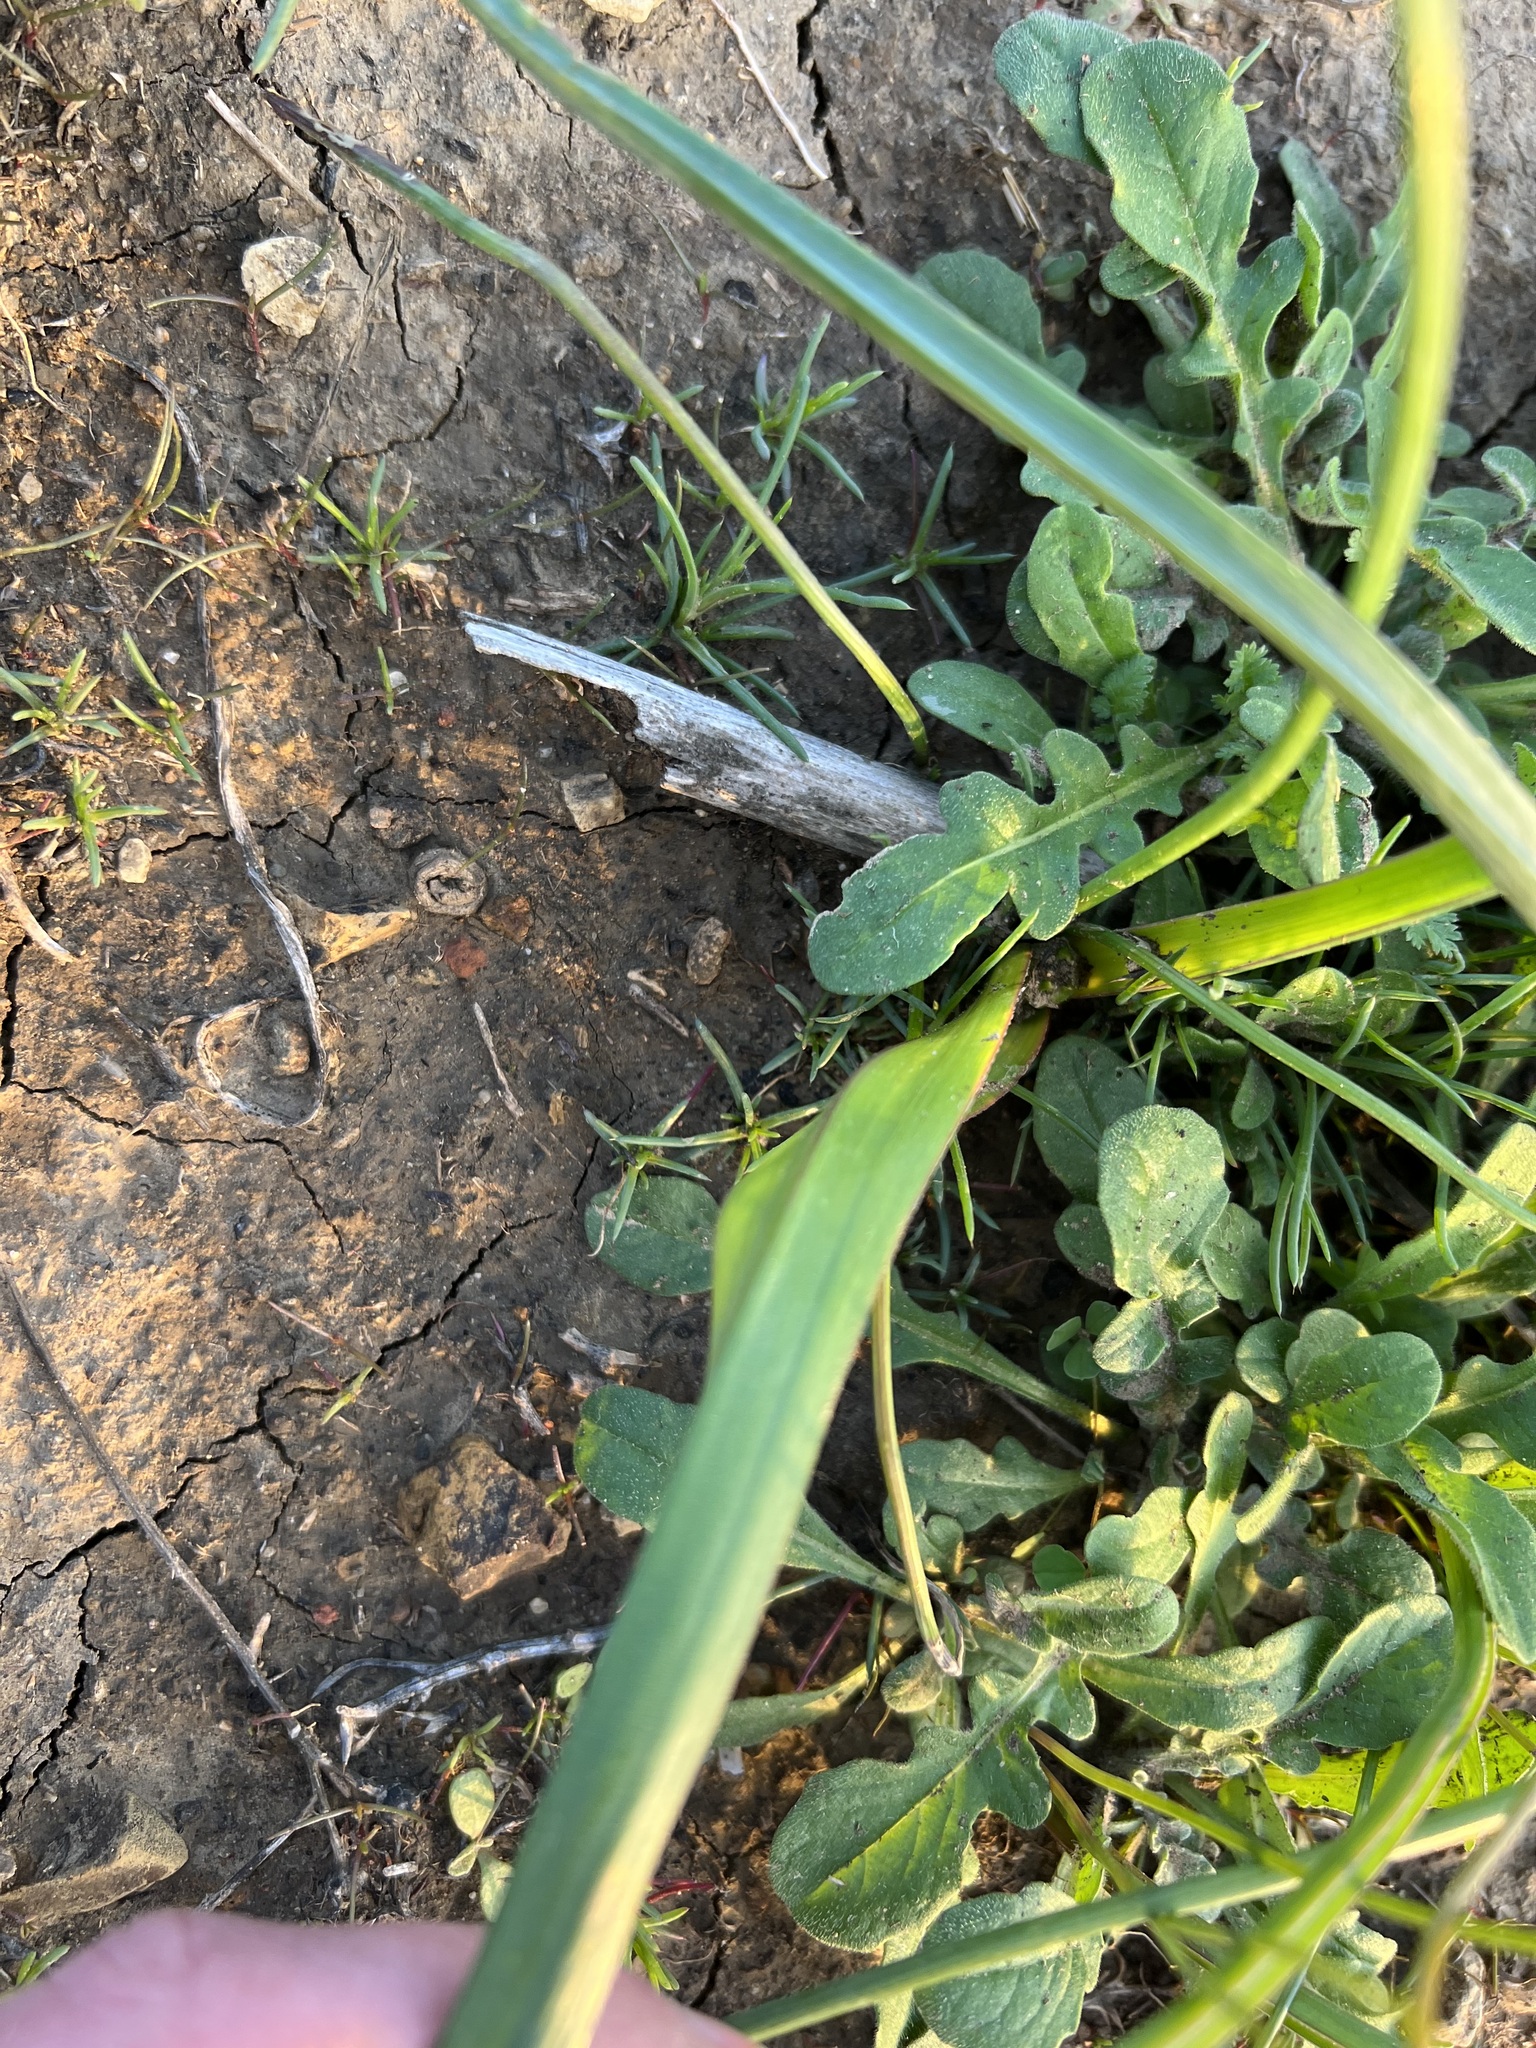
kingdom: Plantae
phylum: Tracheophyta
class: Liliopsida
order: Asparagales
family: Asparagaceae
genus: Dipterostemon
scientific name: Dipterostemon capitatus
